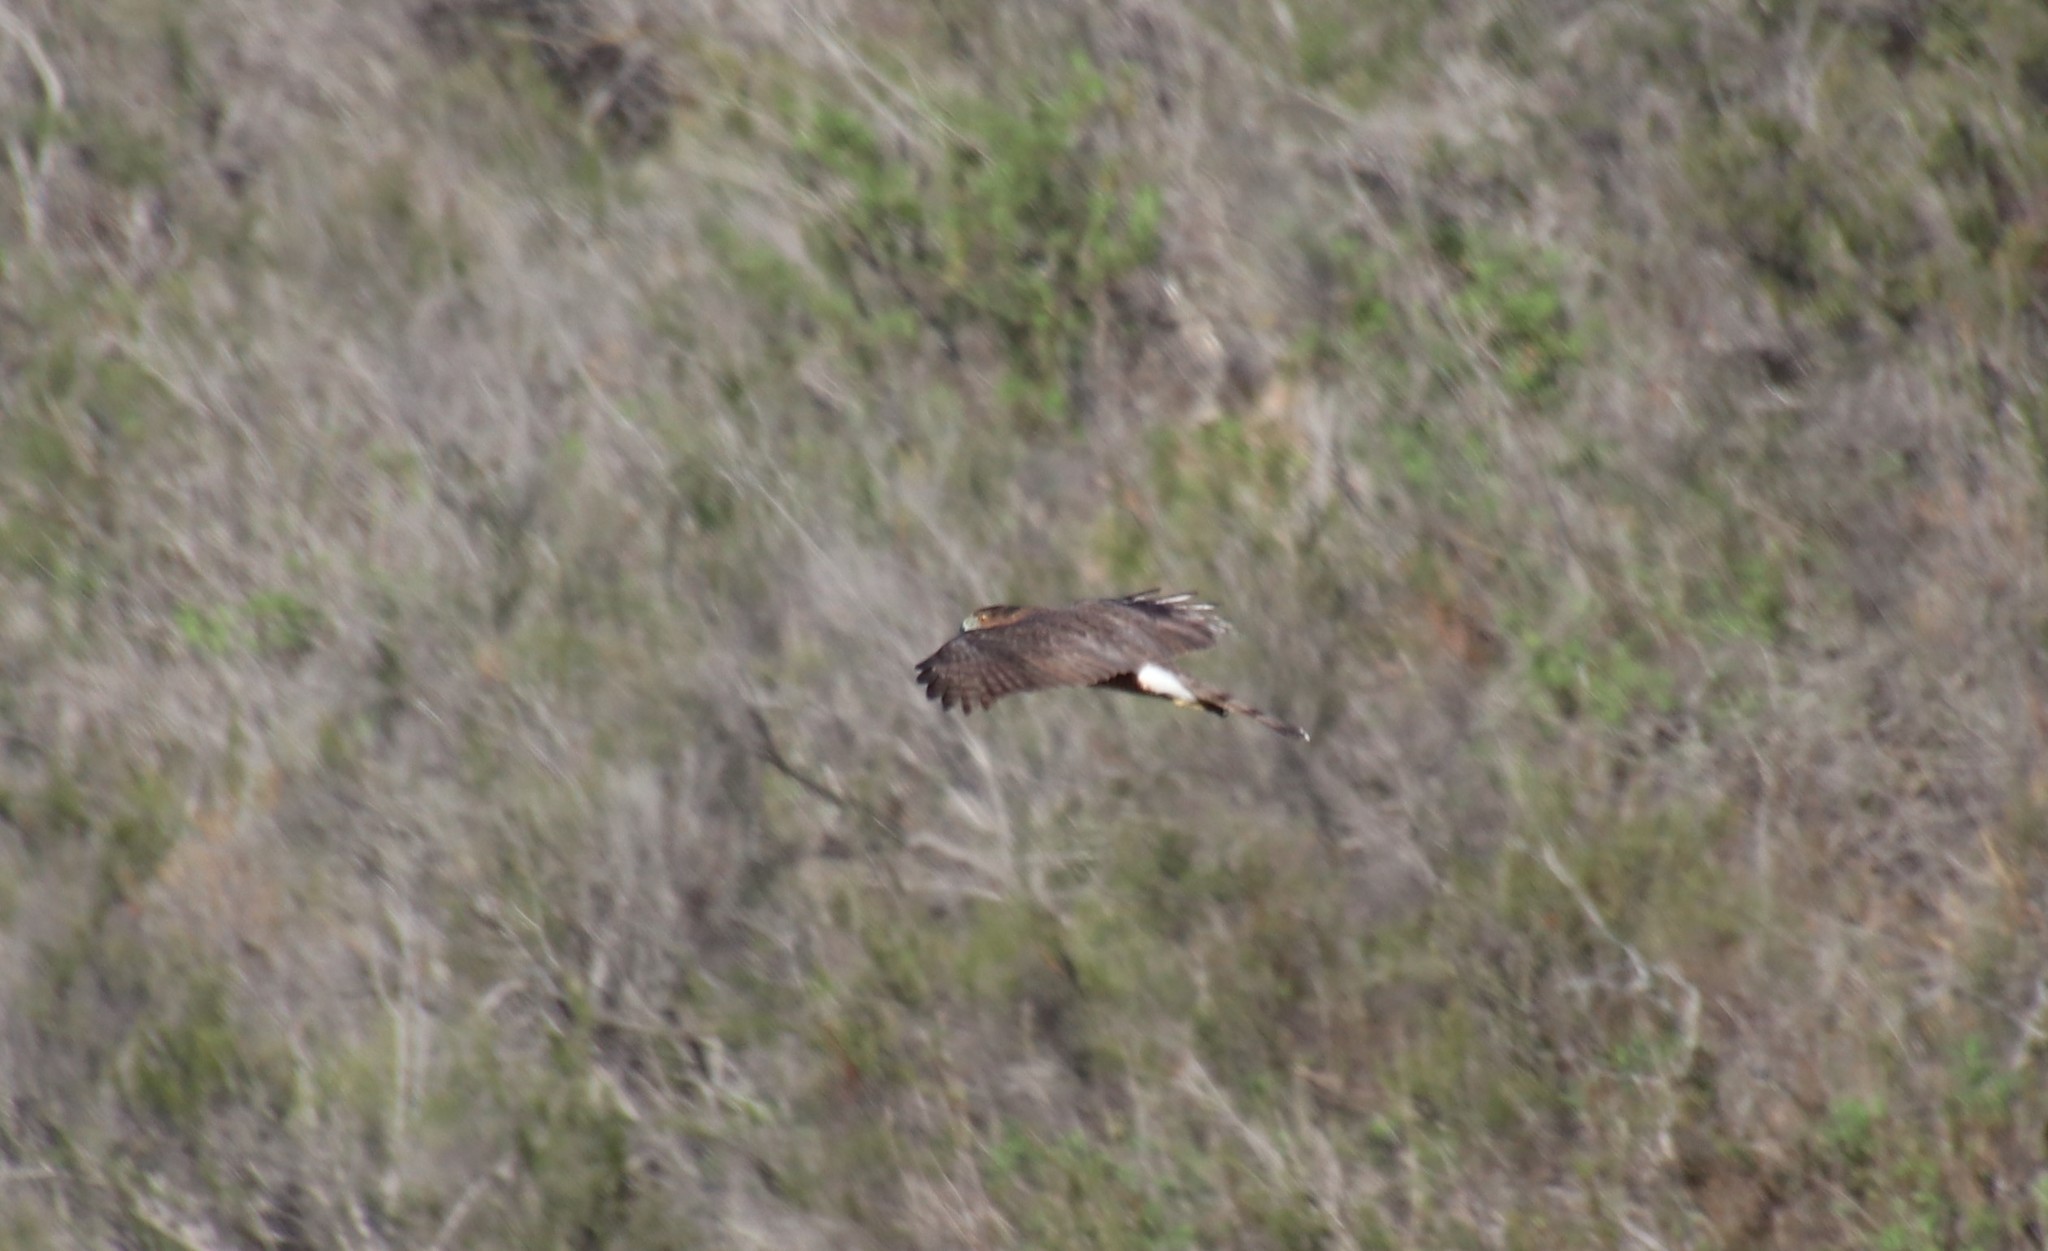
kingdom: Animalia
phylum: Chordata
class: Aves
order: Accipitriformes
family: Accipitridae
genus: Accipiter
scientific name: Accipiter cooperii
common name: Cooper's hawk
